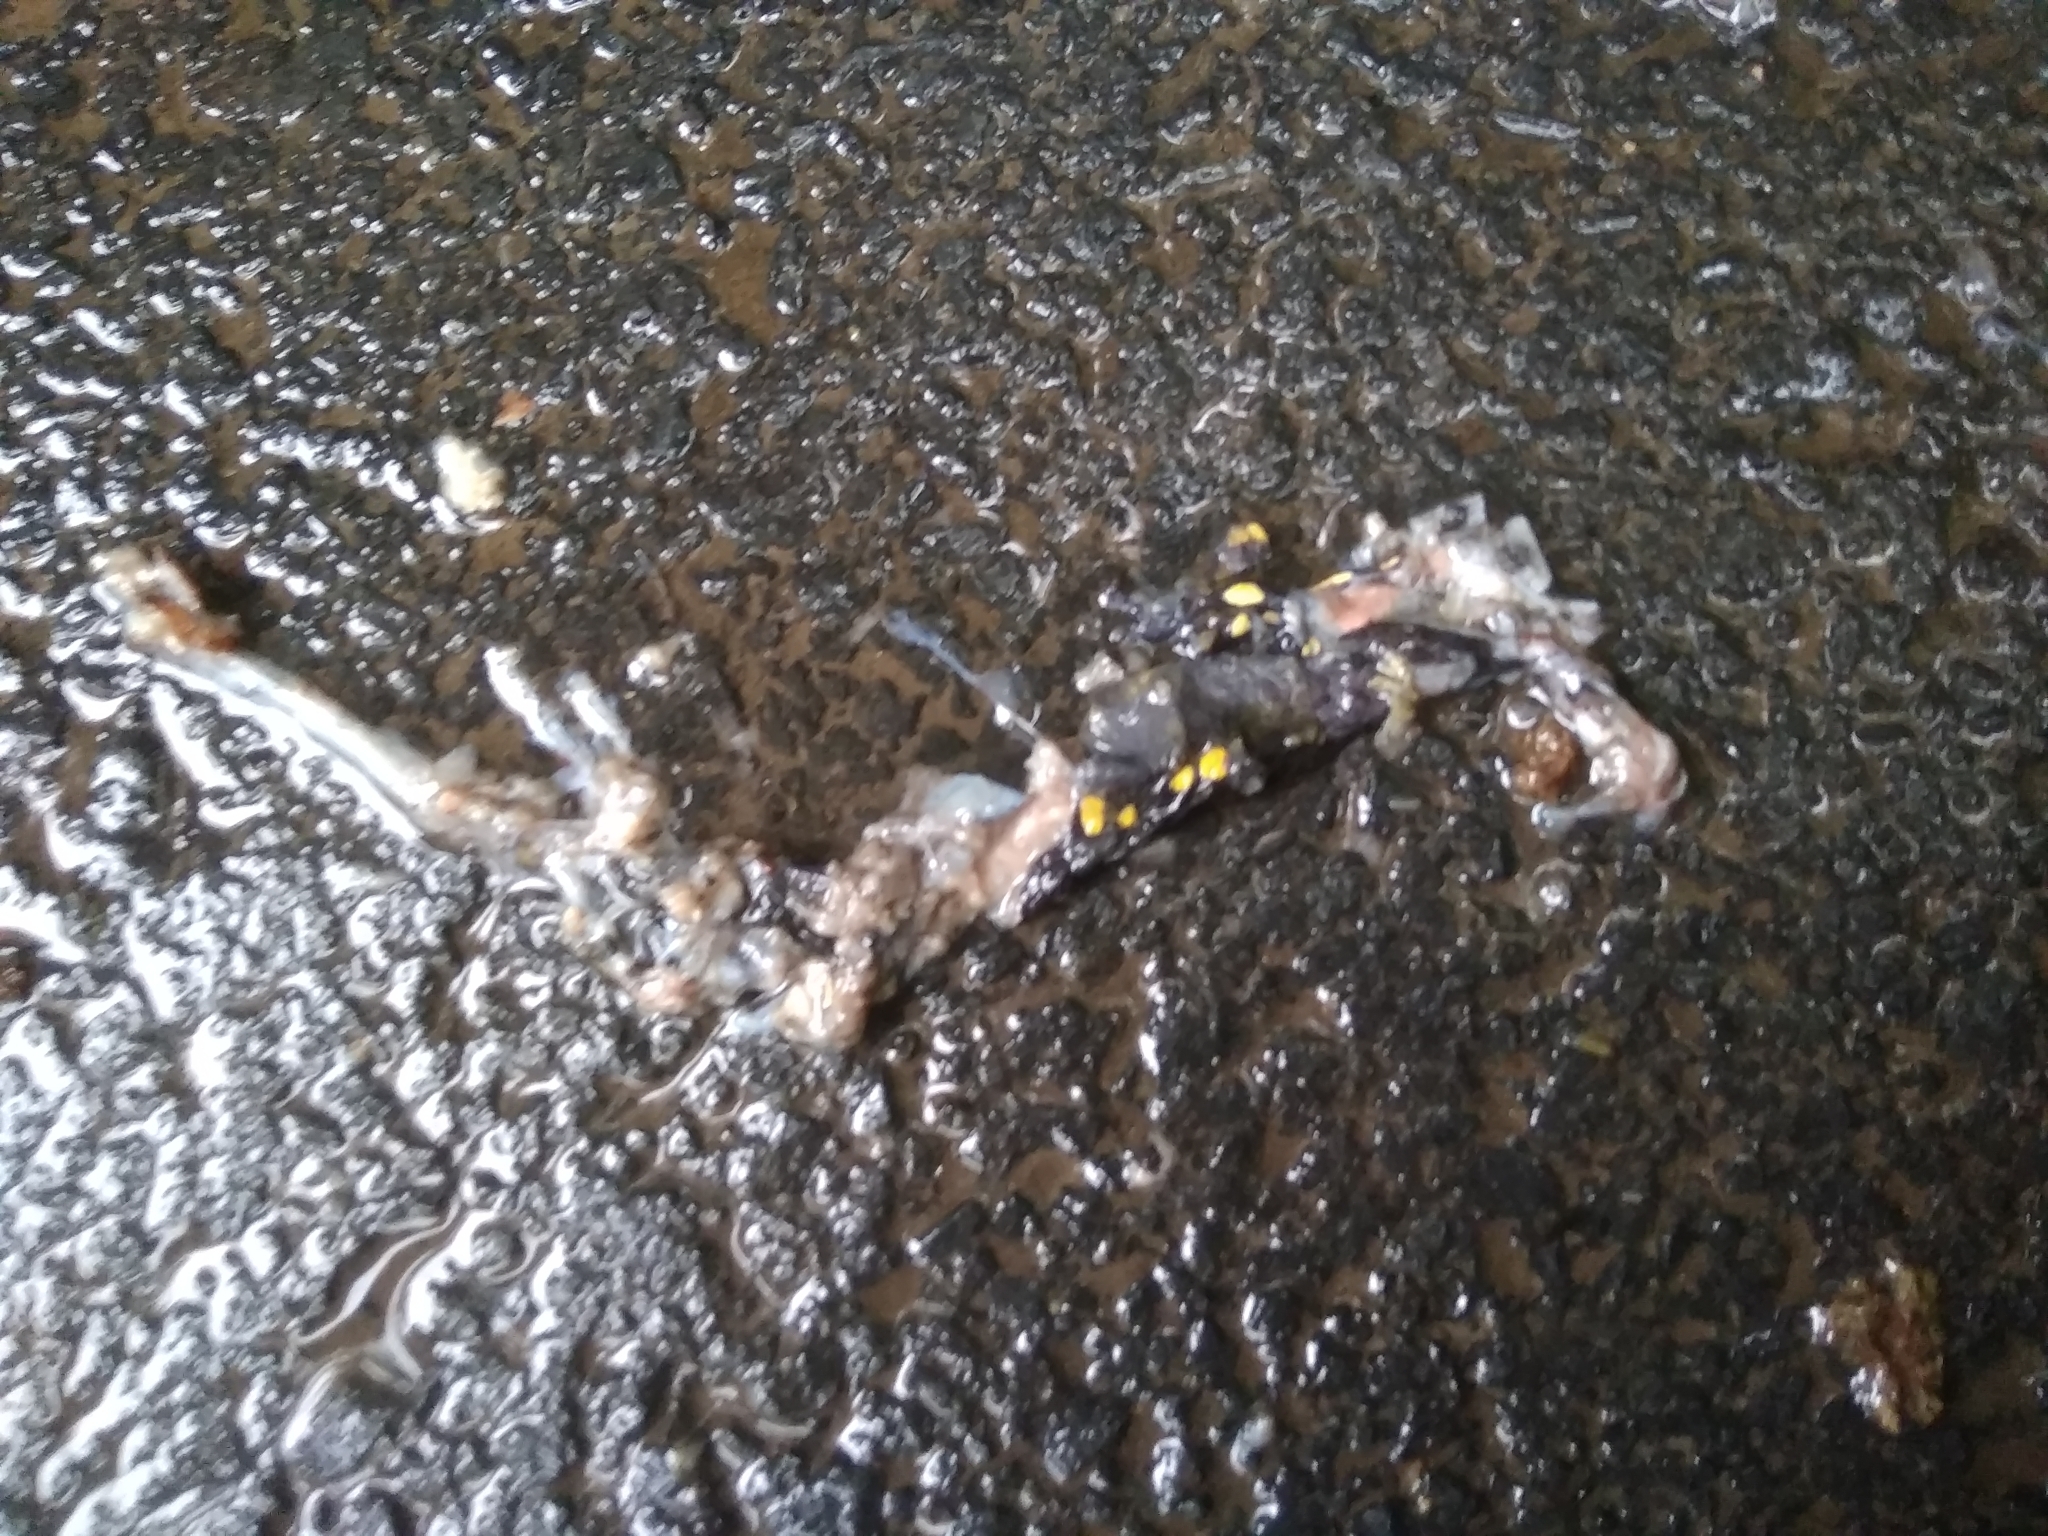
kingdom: Animalia
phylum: Chordata
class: Amphibia
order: Caudata
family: Salamandridae
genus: Salamandra
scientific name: Salamandra salamandra
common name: Fire salamander
